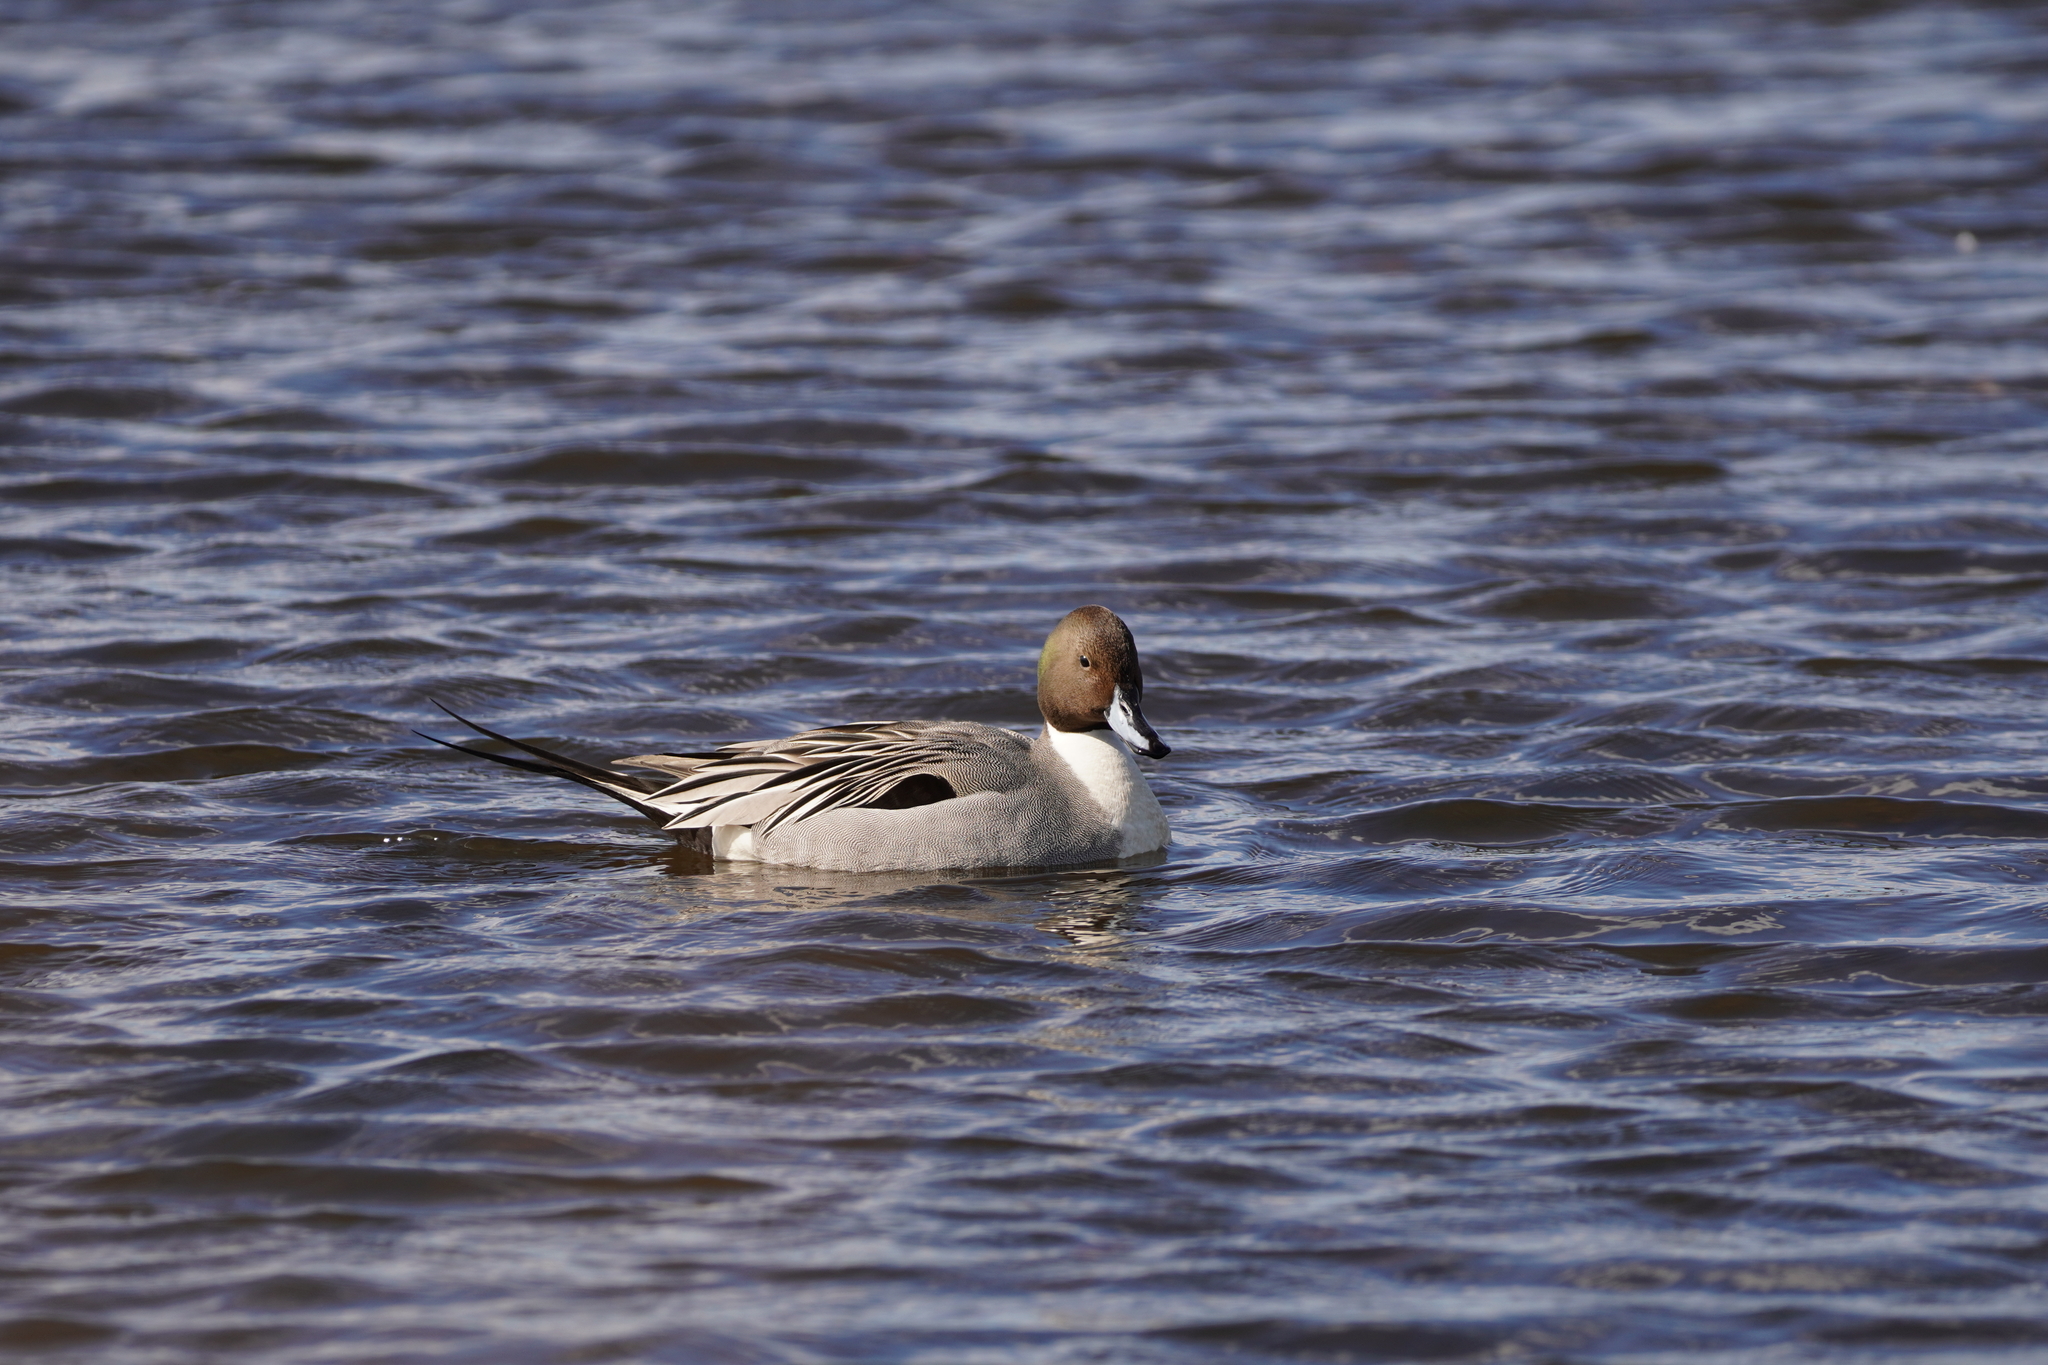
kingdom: Animalia
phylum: Chordata
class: Aves
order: Anseriformes
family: Anatidae
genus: Anas
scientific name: Anas acuta
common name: Northern pintail
